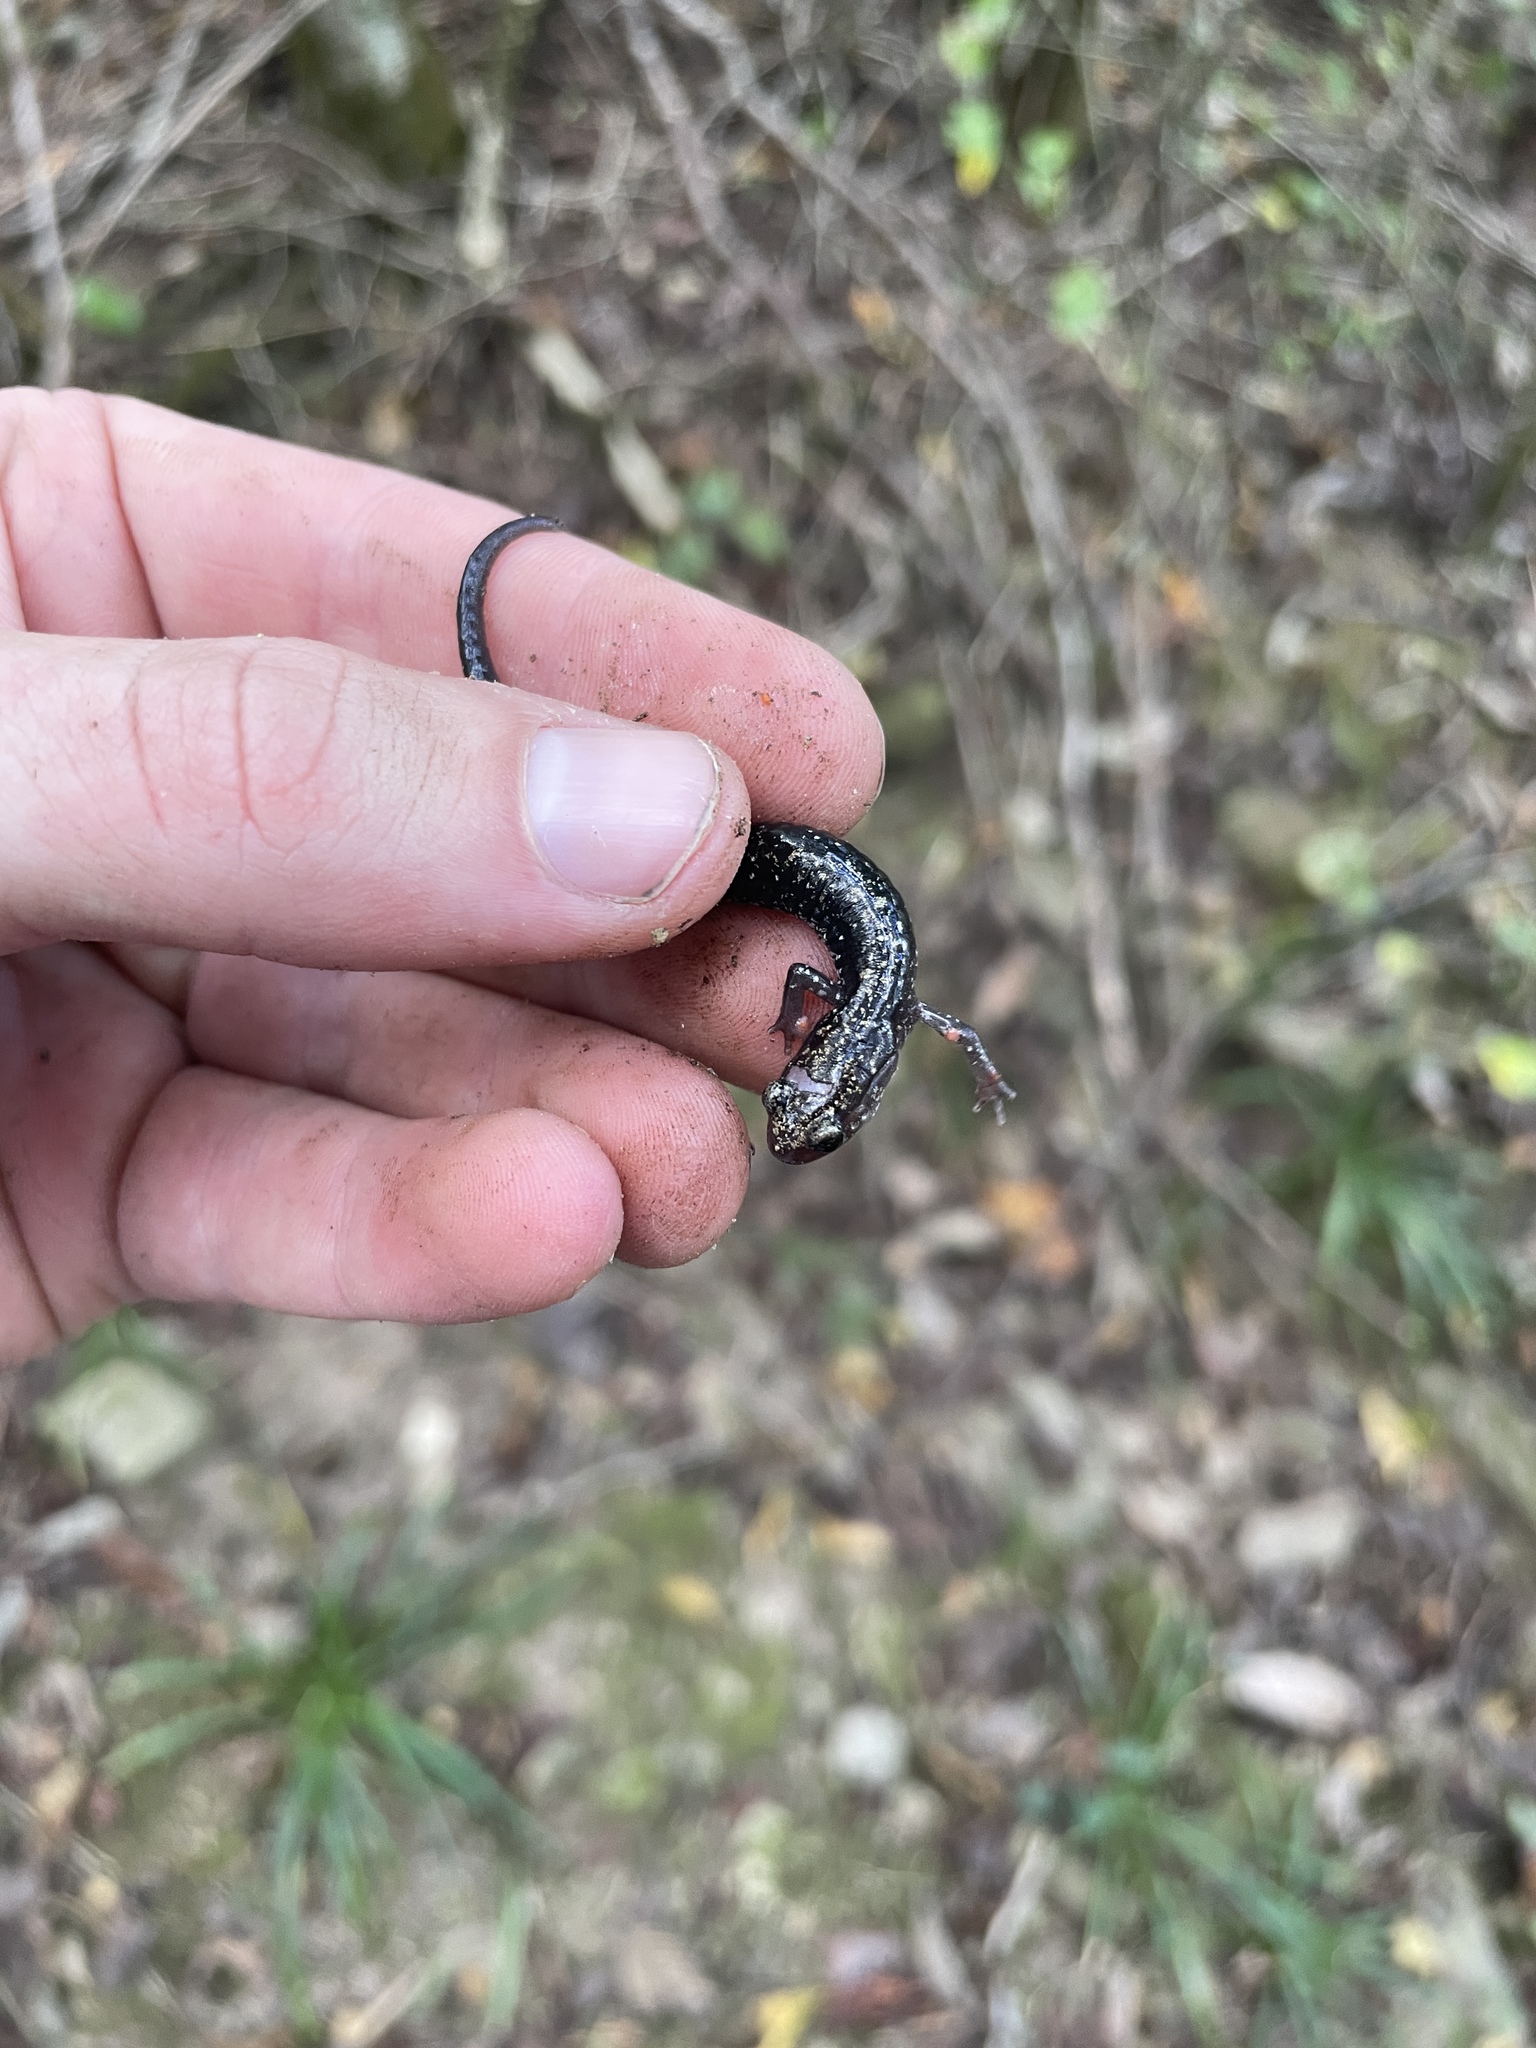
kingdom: Animalia
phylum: Chordata
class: Amphibia
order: Caudata
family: Plethodontidae
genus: Plethodon
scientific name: Plethodon ouachitae
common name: Rich mountain salamander
